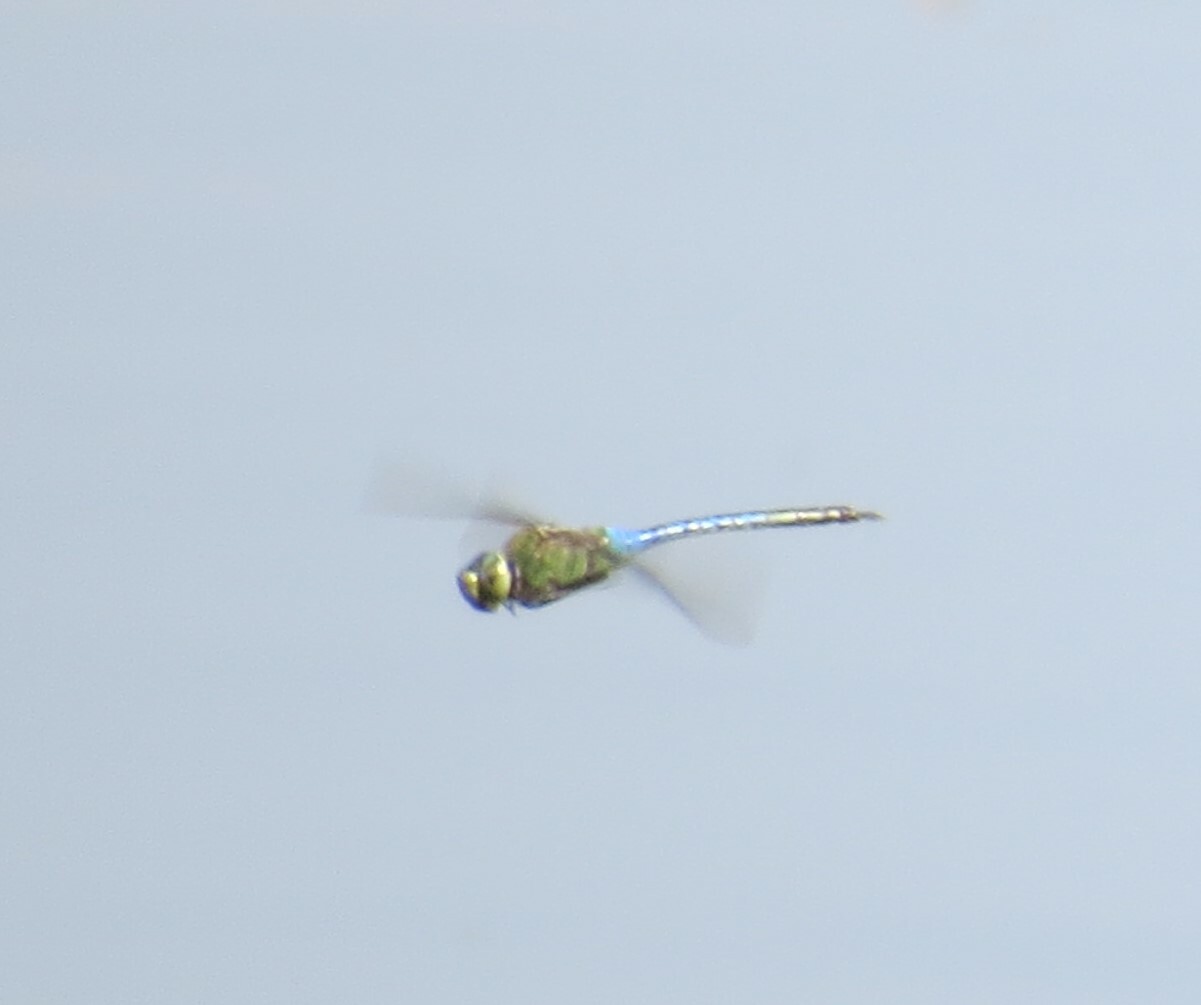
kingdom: Animalia
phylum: Arthropoda
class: Insecta
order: Odonata
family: Aeshnidae
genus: Anax
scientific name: Anax junius
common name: Common green darner
